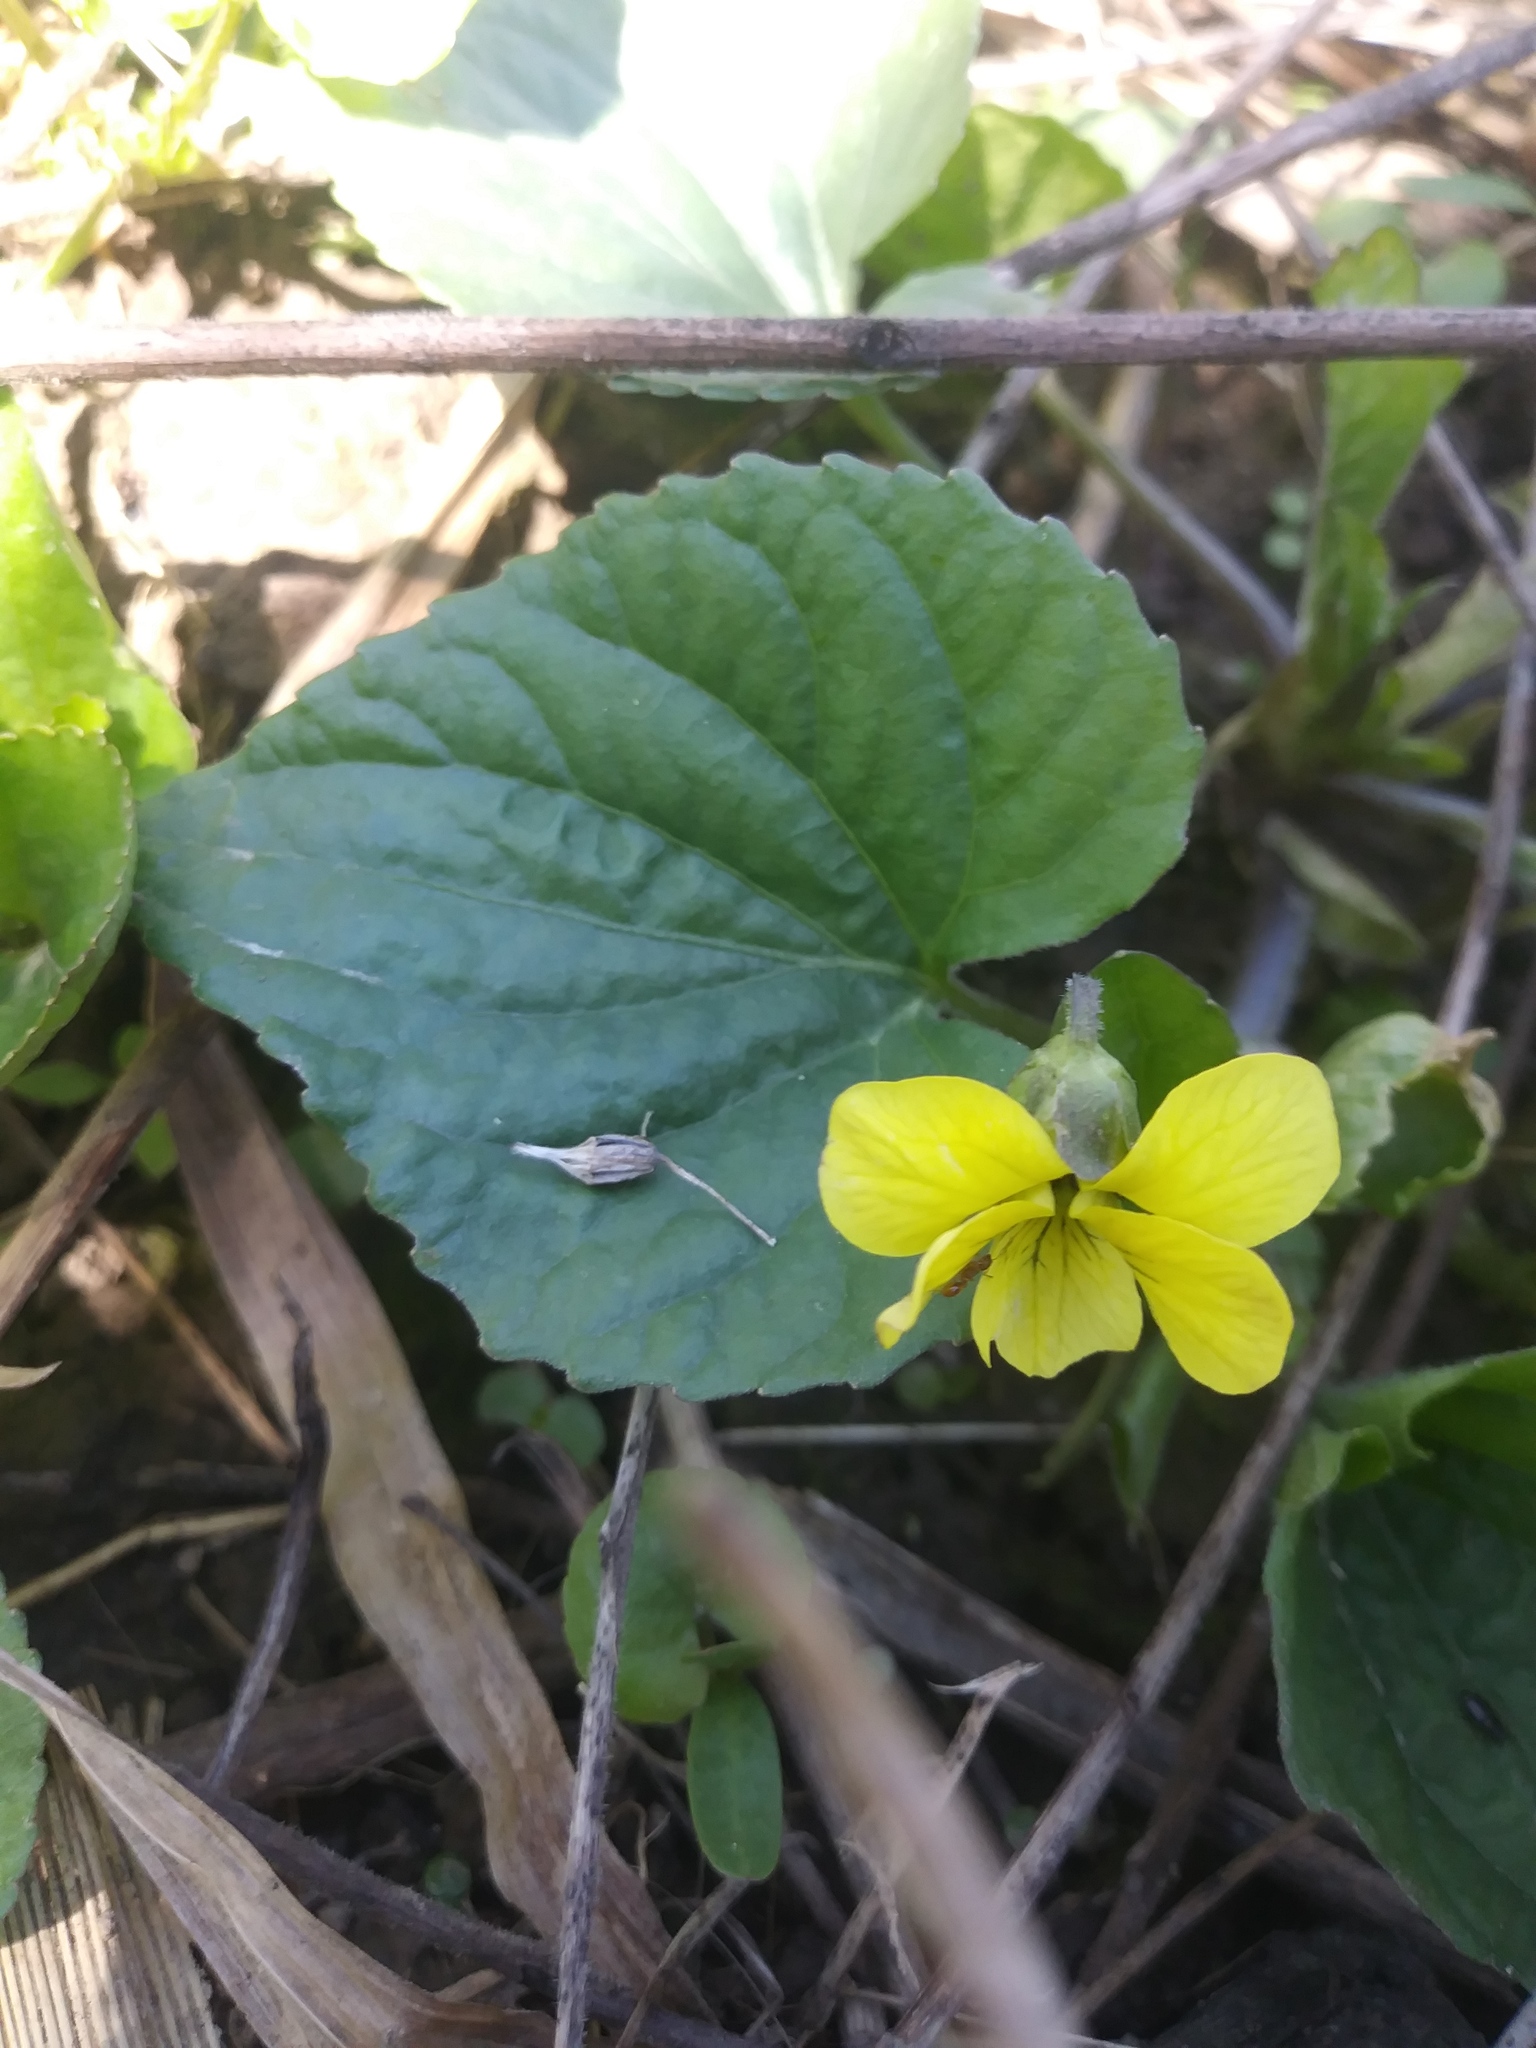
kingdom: Plantae
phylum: Tracheophyta
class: Magnoliopsida
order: Malpighiales
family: Violaceae
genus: Viola
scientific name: Viola eriocarpa
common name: Smooth yellow violet
